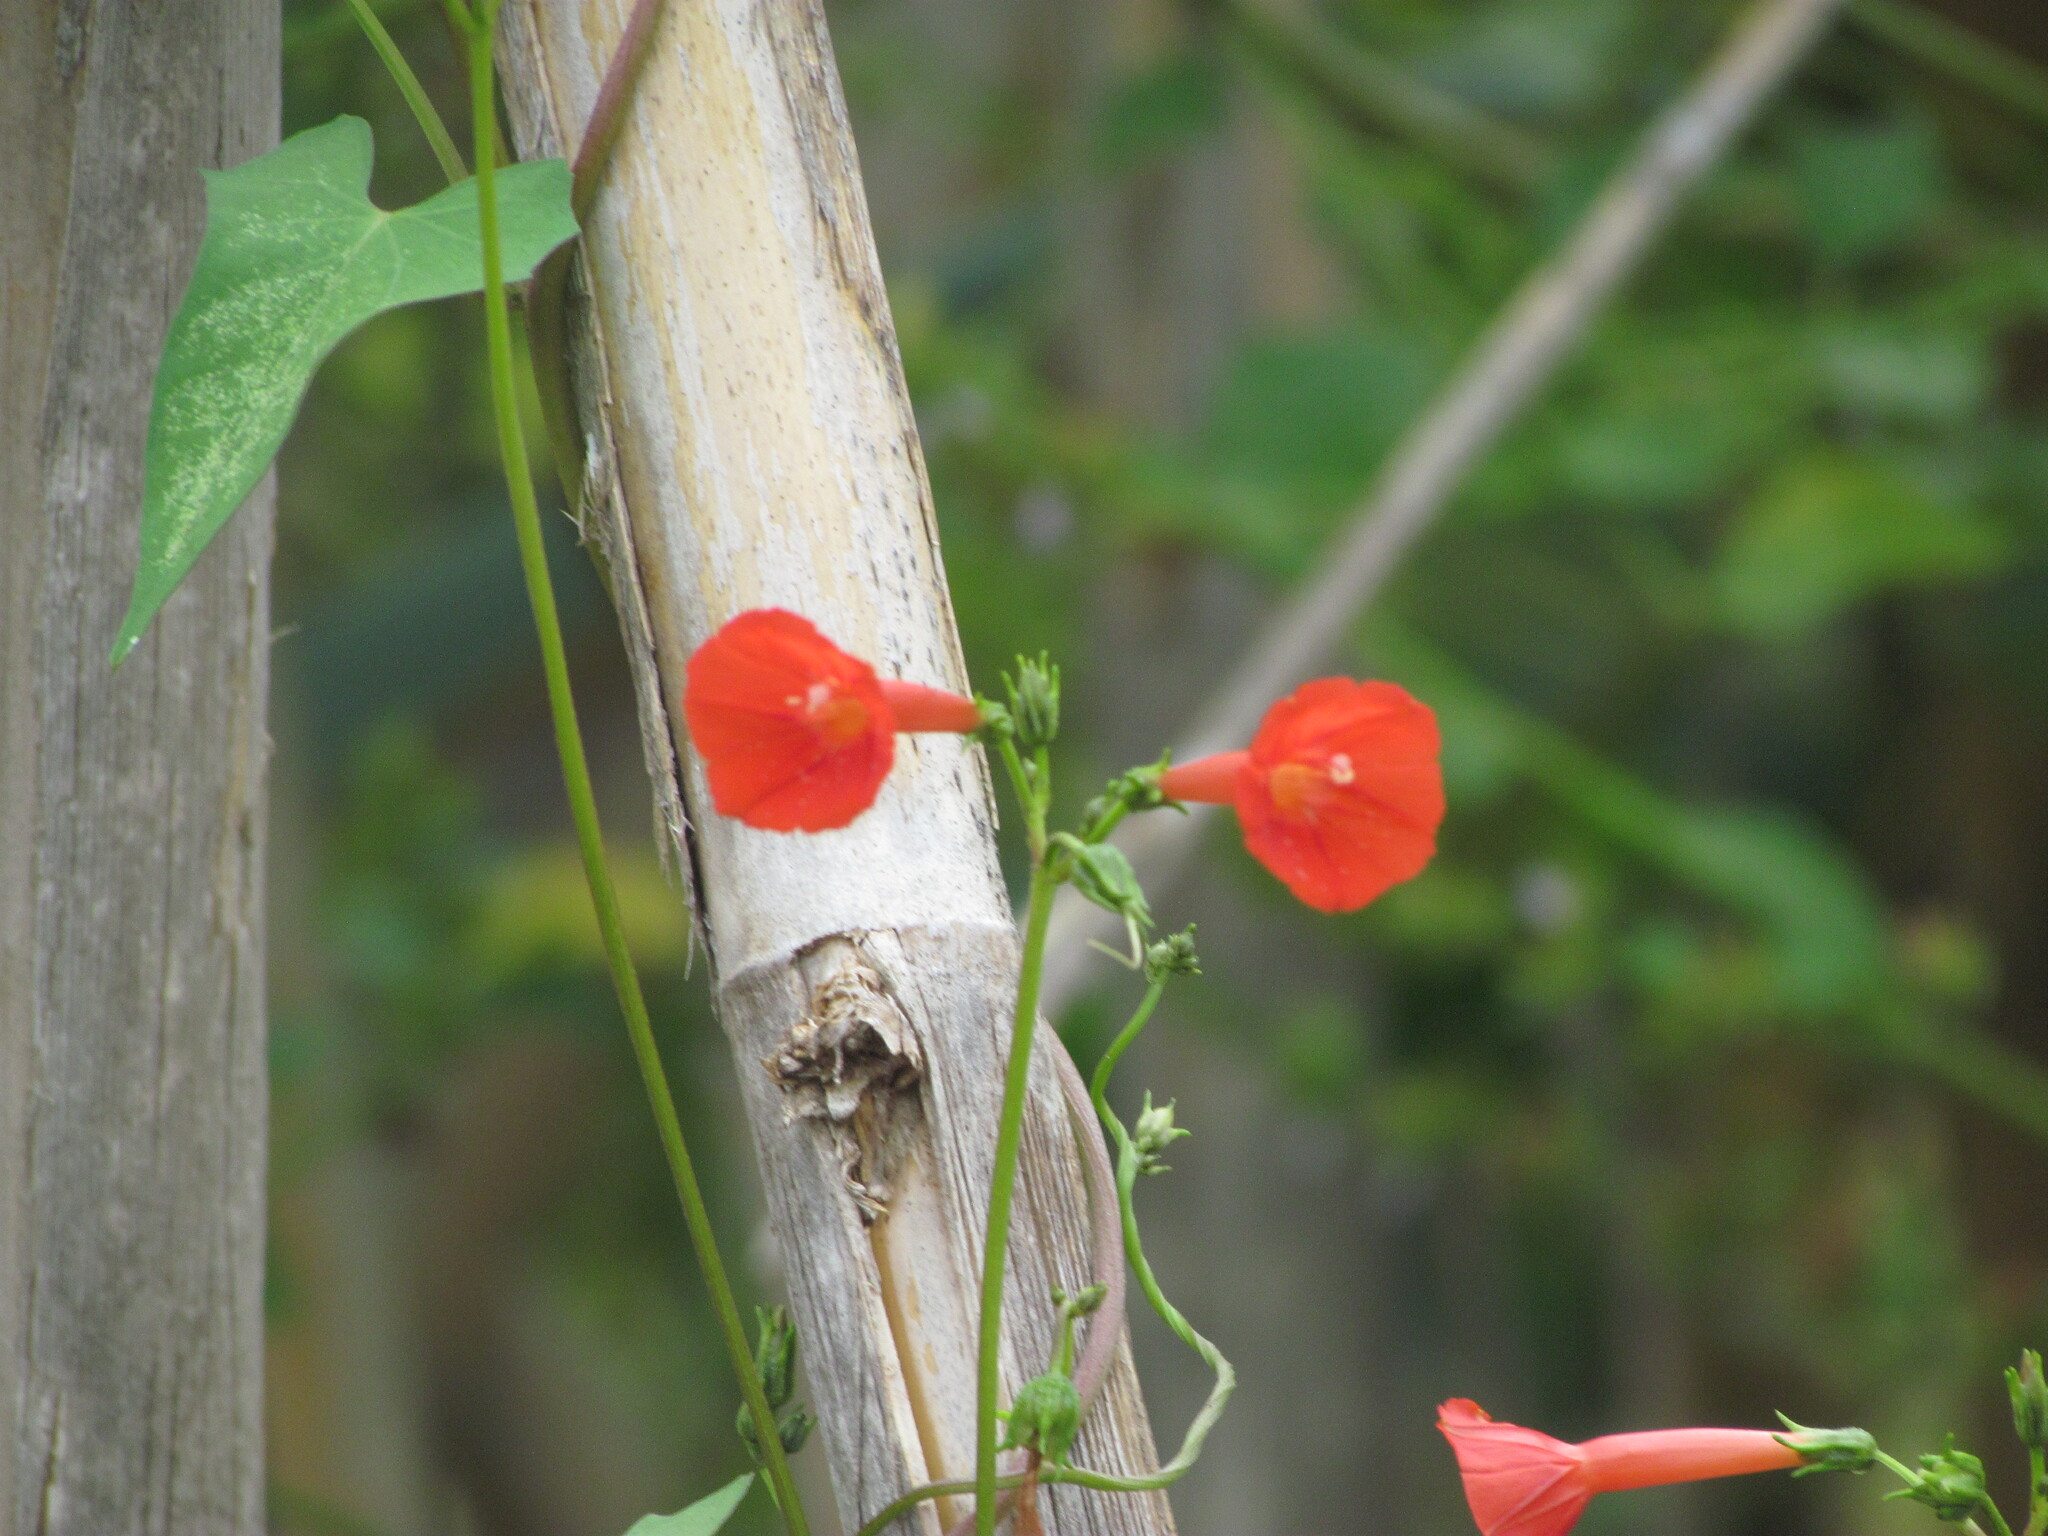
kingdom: Plantae
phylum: Tracheophyta
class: Magnoliopsida
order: Solanales
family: Convolvulaceae
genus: Ipomoea
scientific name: Ipomoea indivisa
